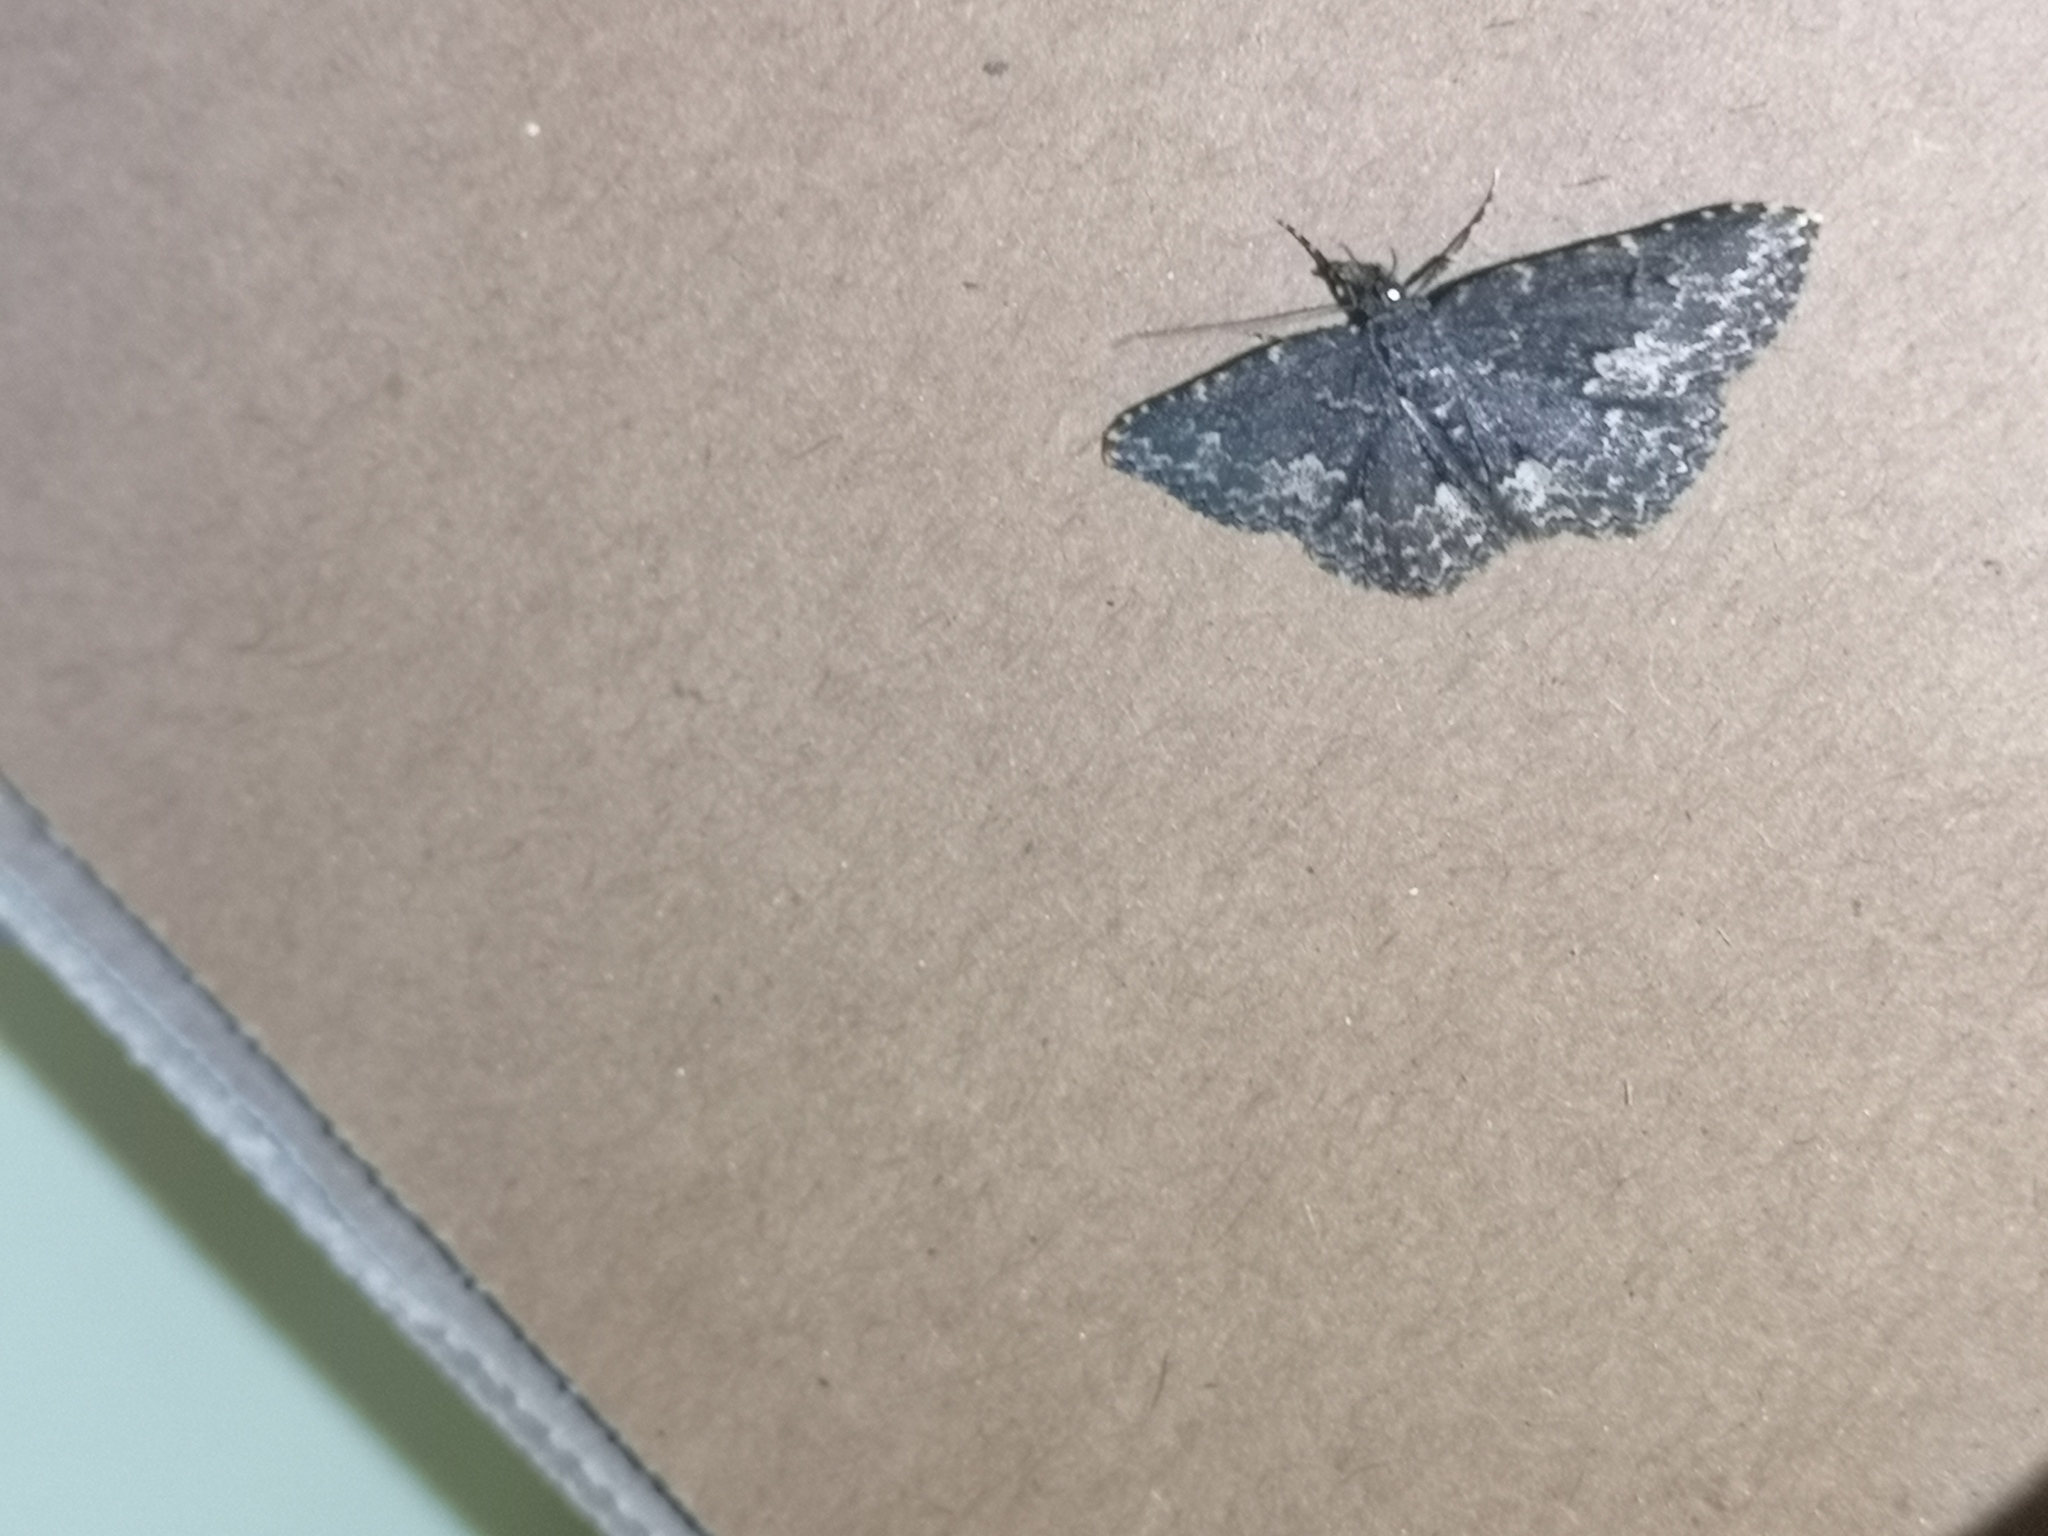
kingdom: Animalia
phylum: Arthropoda
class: Insecta
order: Lepidoptera
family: Erebidae
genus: Parascotia
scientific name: Parascotia fuliginaria
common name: Waved black
